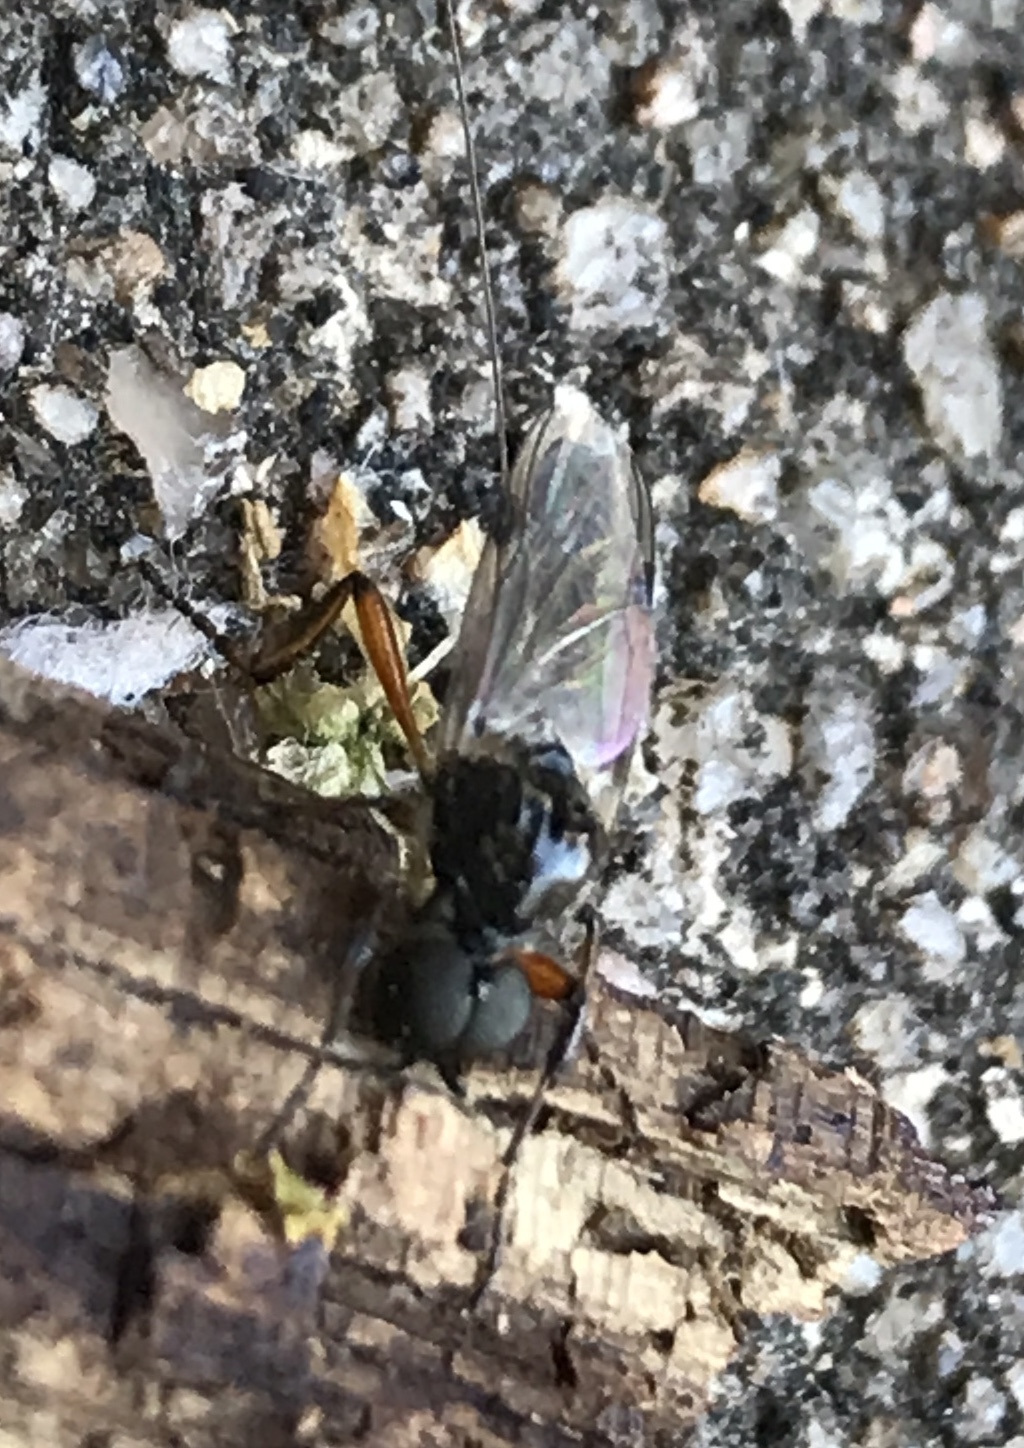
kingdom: Animalia
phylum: Arthropoda
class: Insecta
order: Diptera
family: Bibionidae
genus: Bibio
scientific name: Bibio alienus
